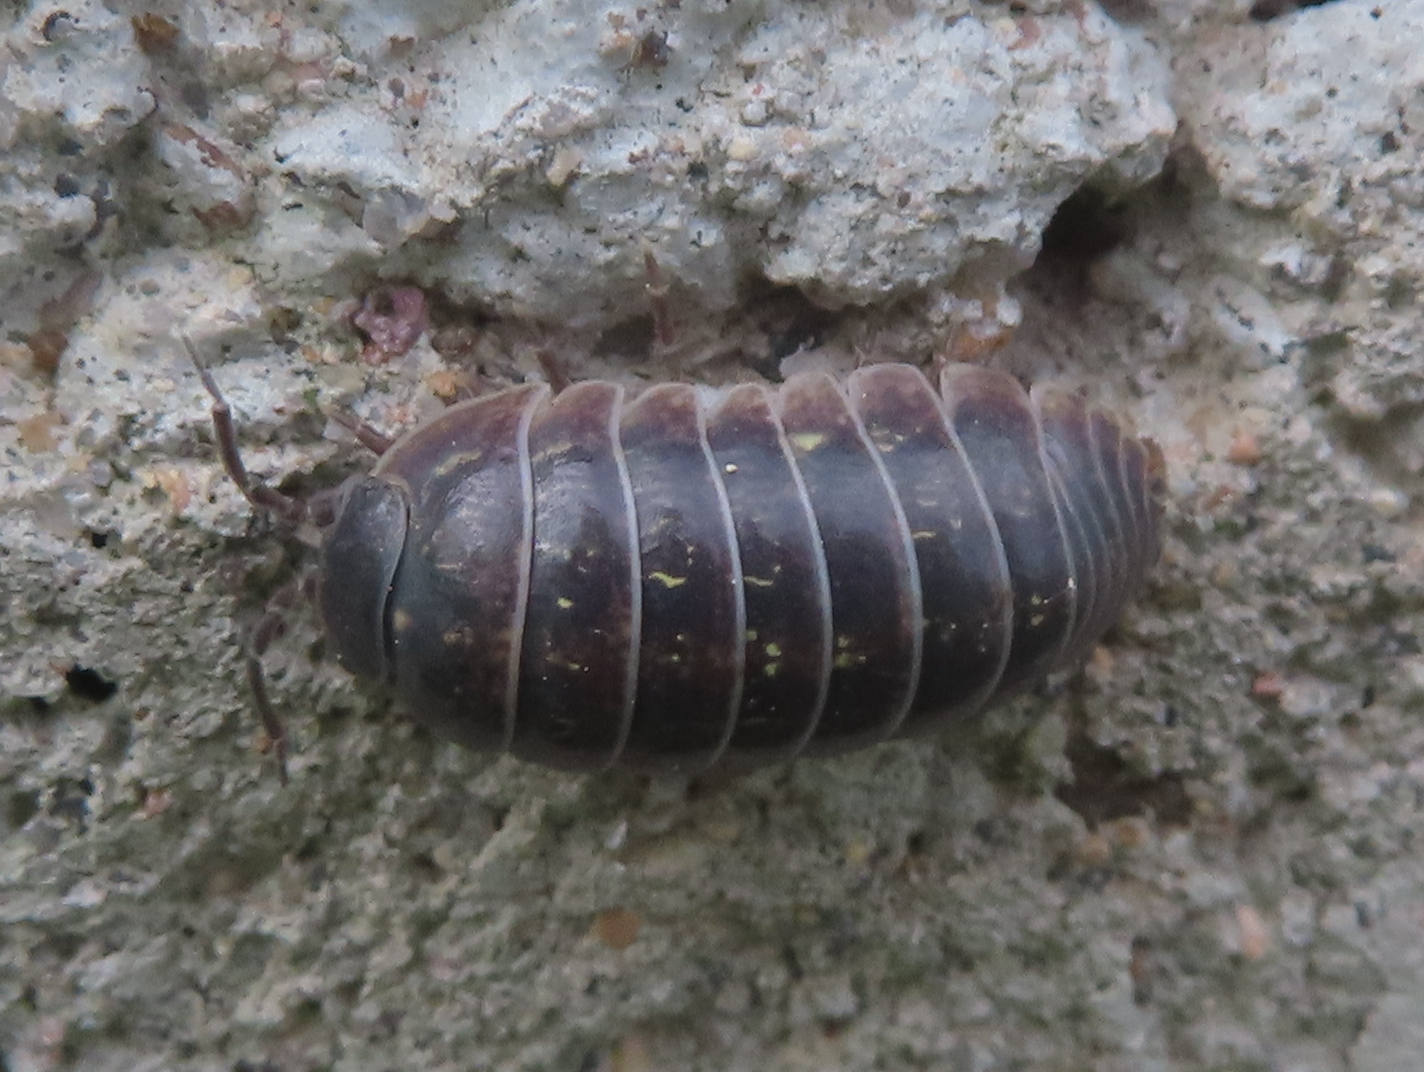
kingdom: Animalia
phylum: Arthropoda
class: Malacostraca
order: Isopoda
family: Armadillidiidae
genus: Armadillidium
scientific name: Armadillidium vulgare
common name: Common pill woodlouse
